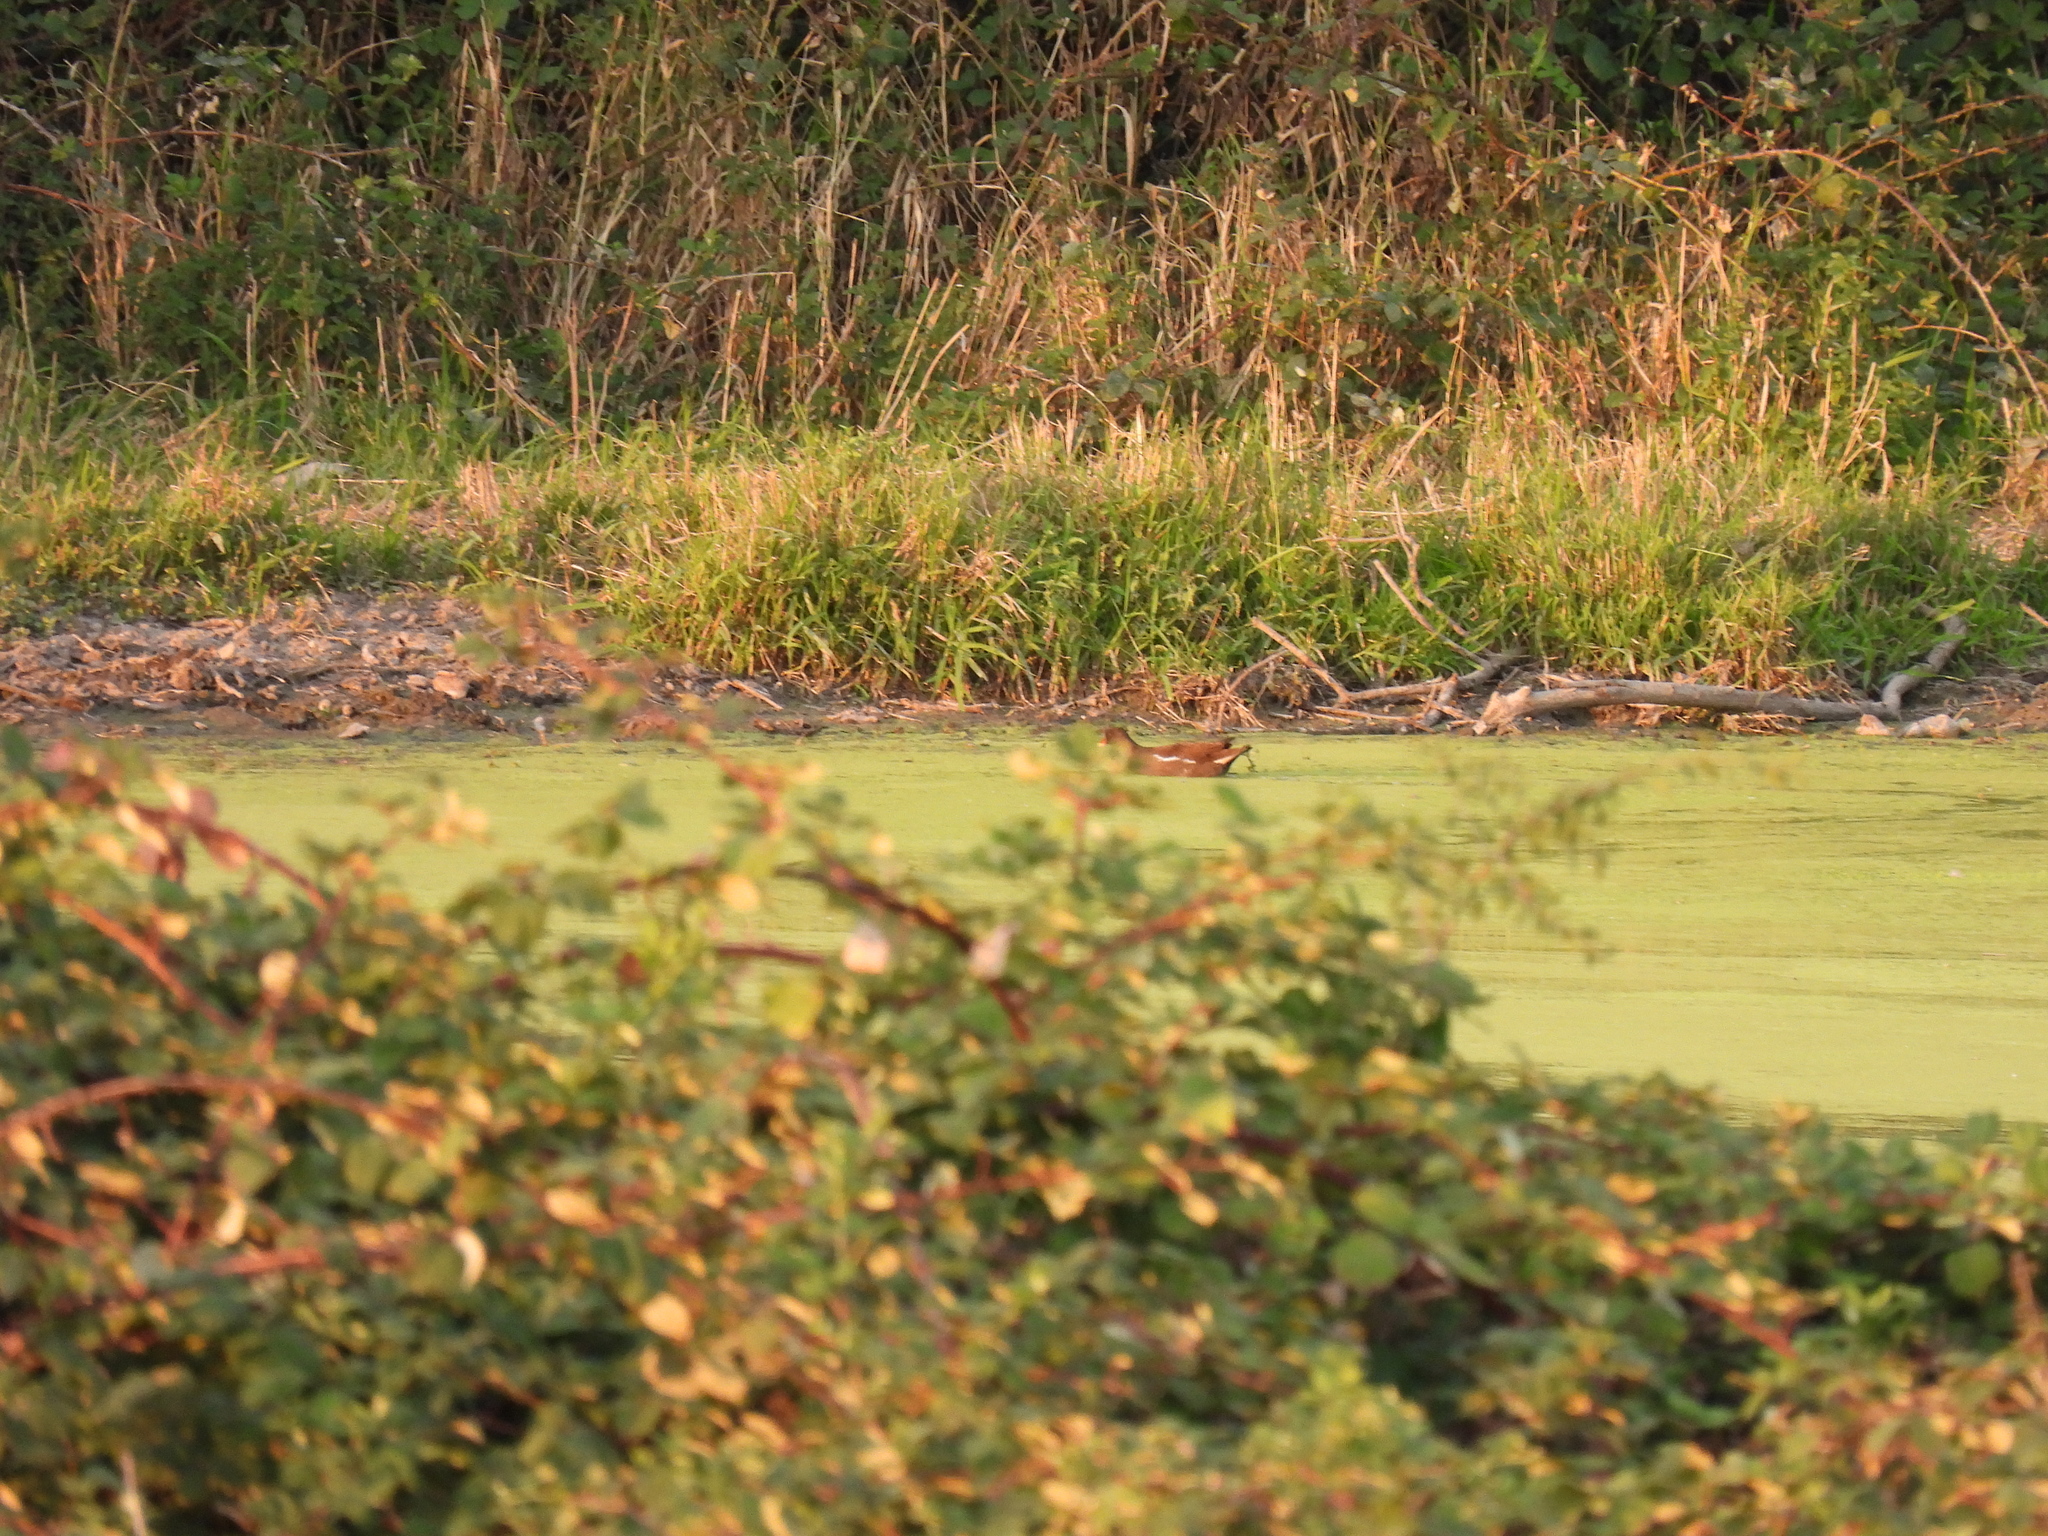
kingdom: Animalia
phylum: Chordata
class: Aves
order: Gruiformes
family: Rallidae
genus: Gallinula
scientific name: Gallinula chloropus
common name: Common moorhen
